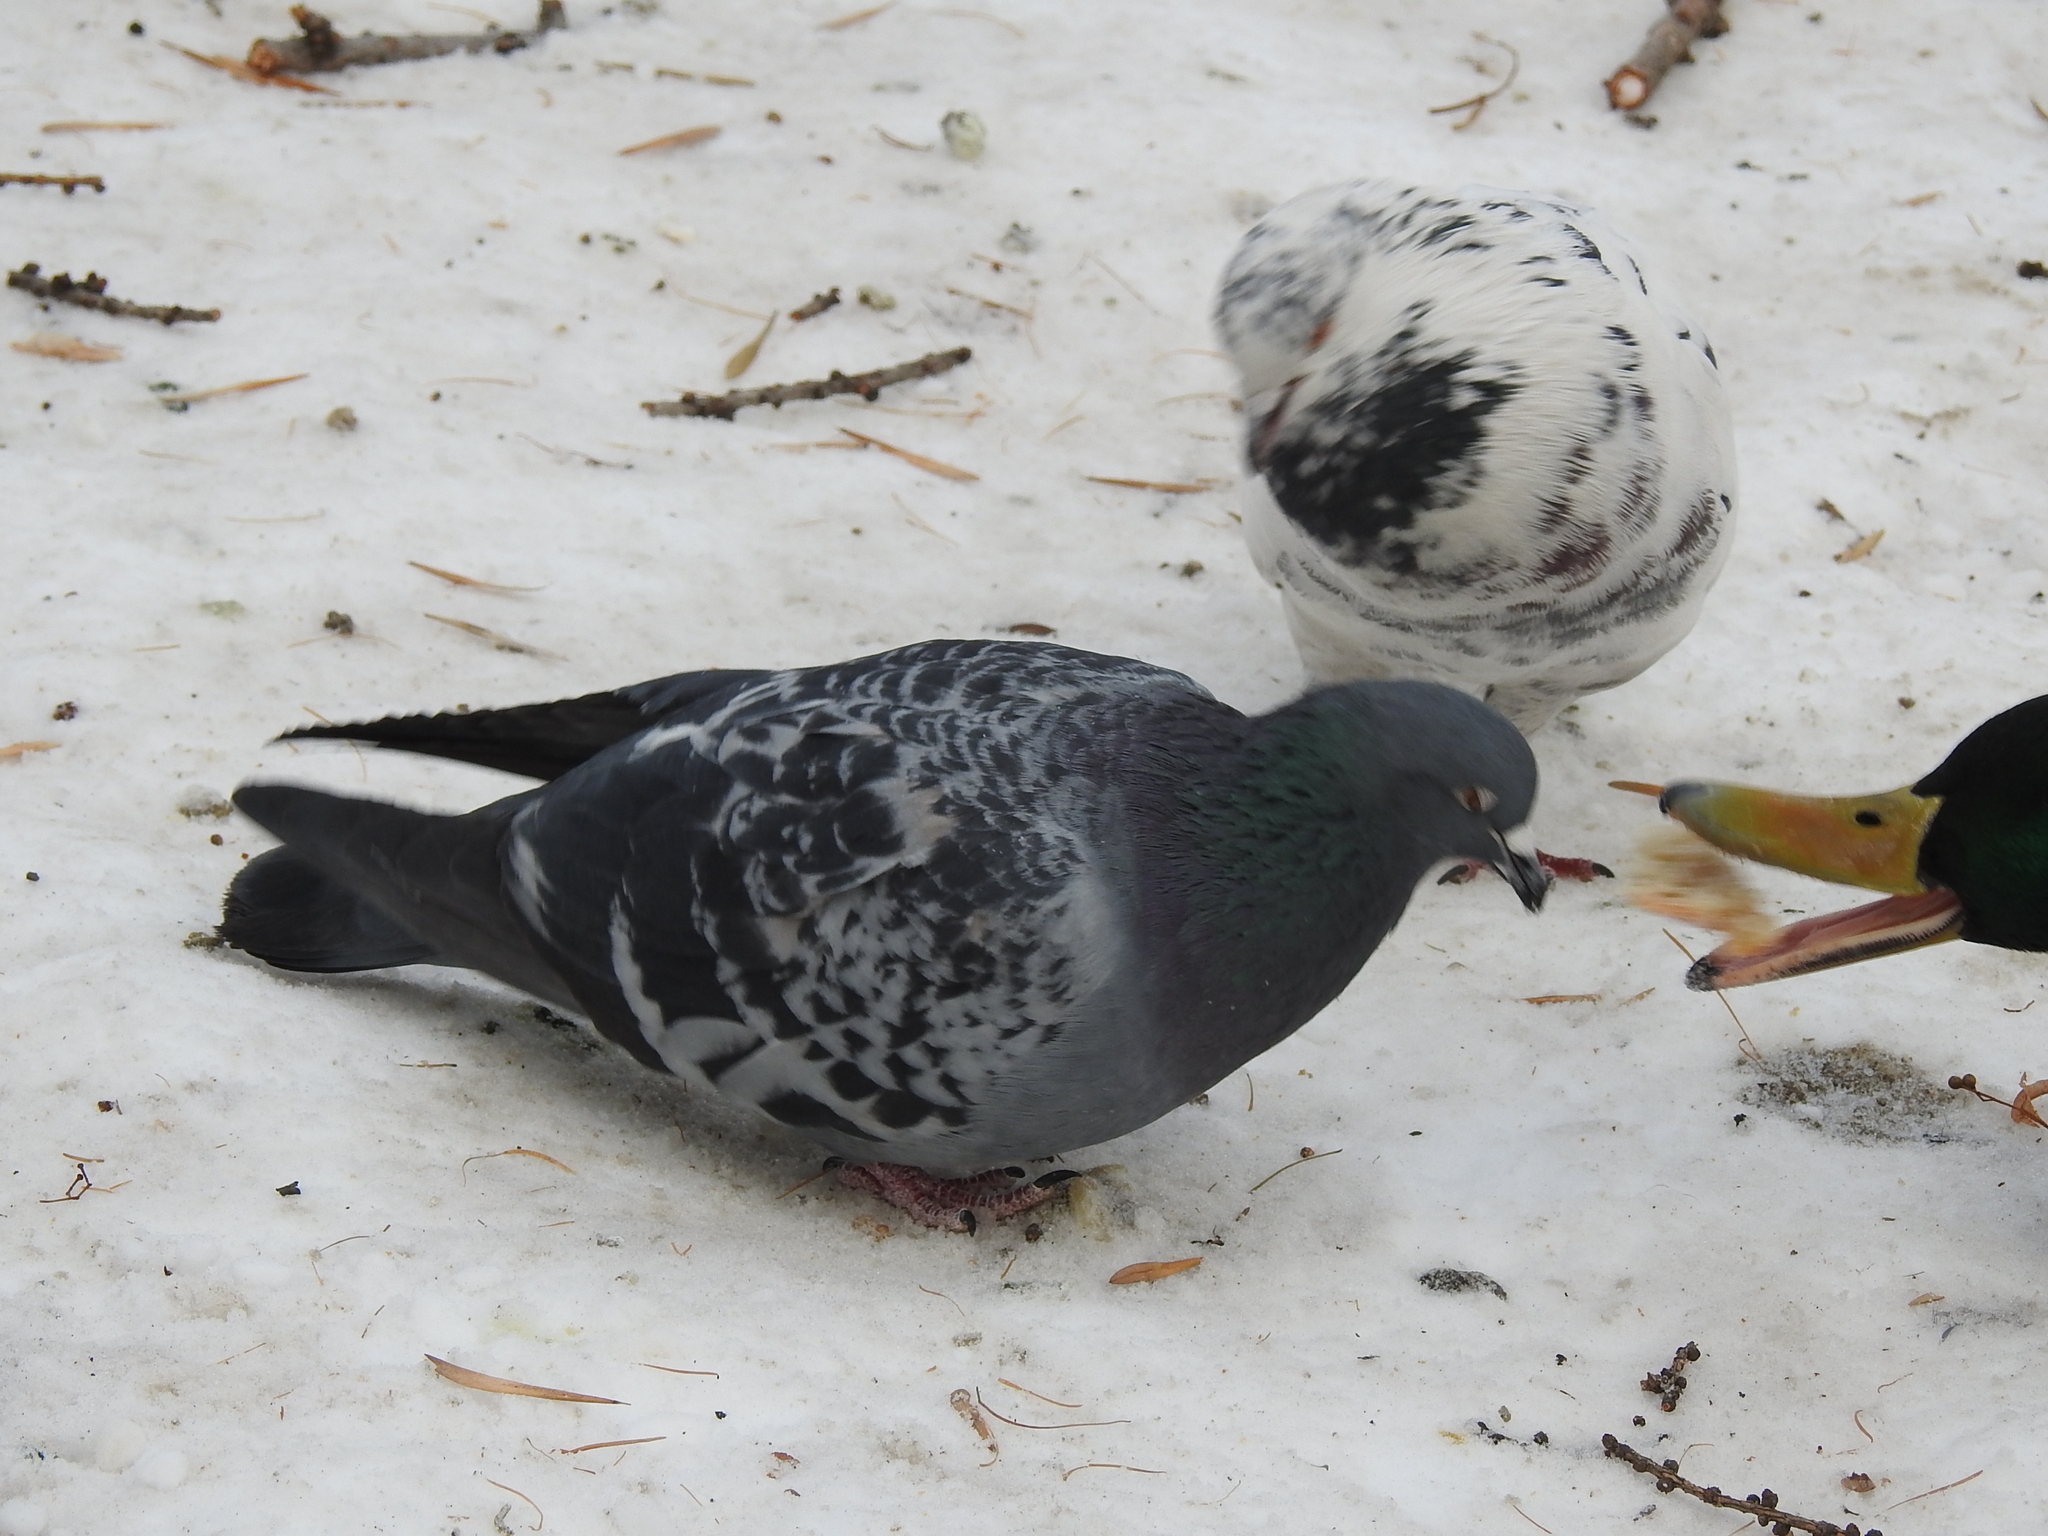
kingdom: Animalia
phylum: Chordata
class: Aves
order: Columbiformes
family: Columbidae
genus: Columba
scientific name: Columba livia
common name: Rock pigeon
